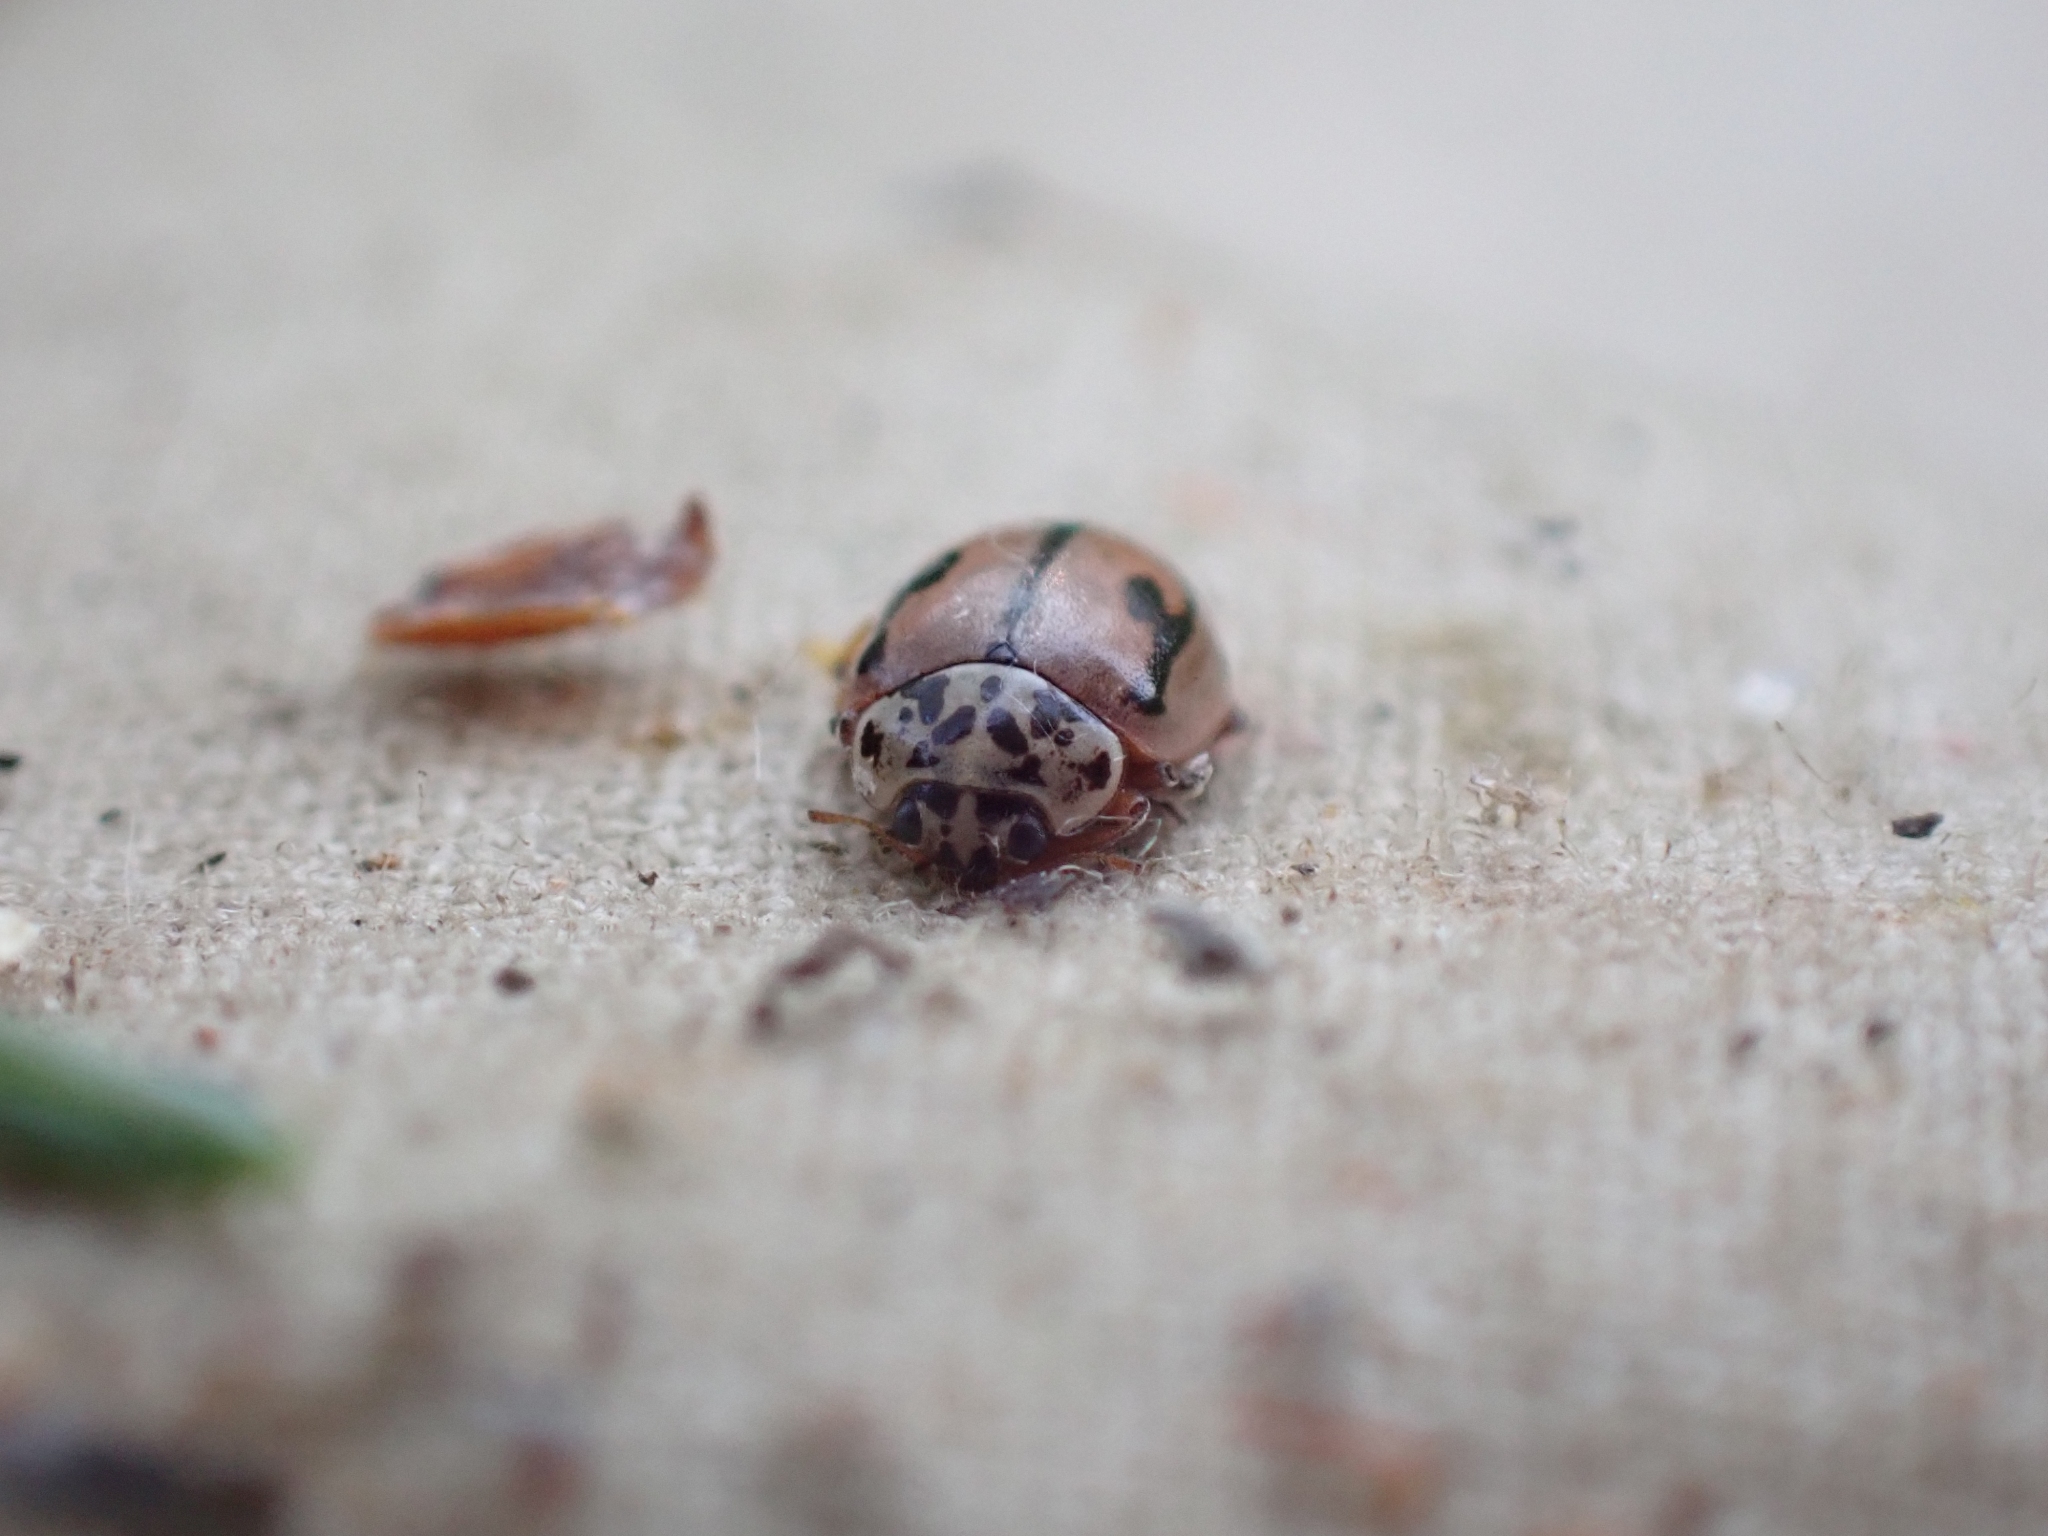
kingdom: Animalia
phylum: Arthropoda
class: Insecta
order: Coleoptera
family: Coccinellidae
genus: Mulsantina
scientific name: Mulsantina hudsonica
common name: Hudsonian ladybird
